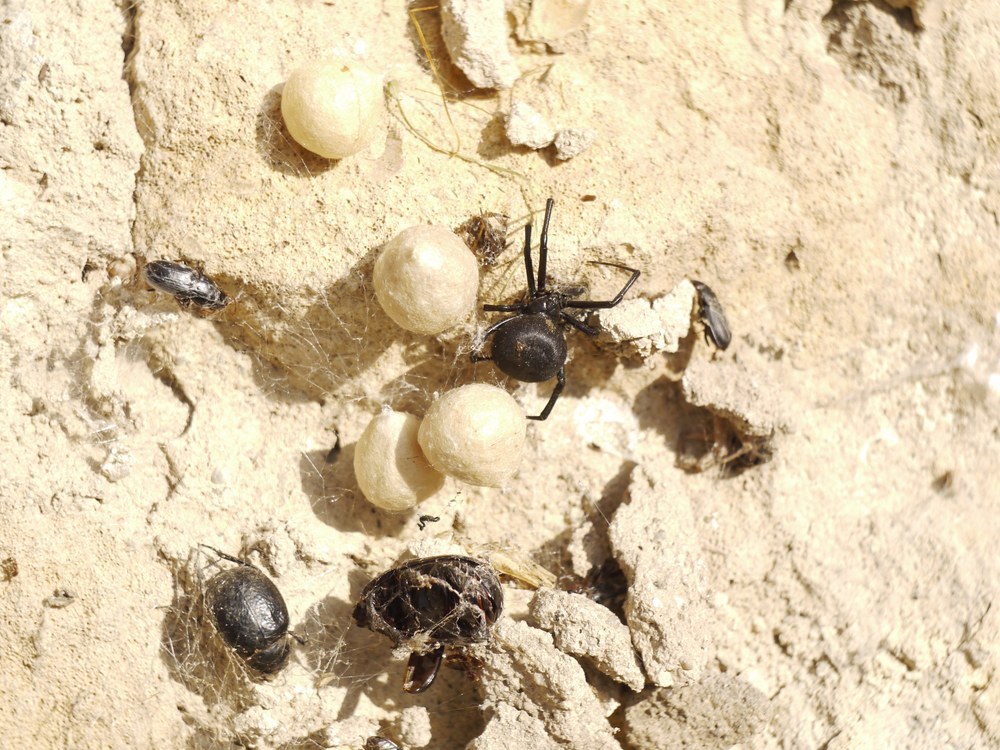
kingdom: Animalia
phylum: Arthropoda
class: Arachnida
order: Araneae
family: Theridiidae
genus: Latrodectus
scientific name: Latrodectus tredecimguttatus
